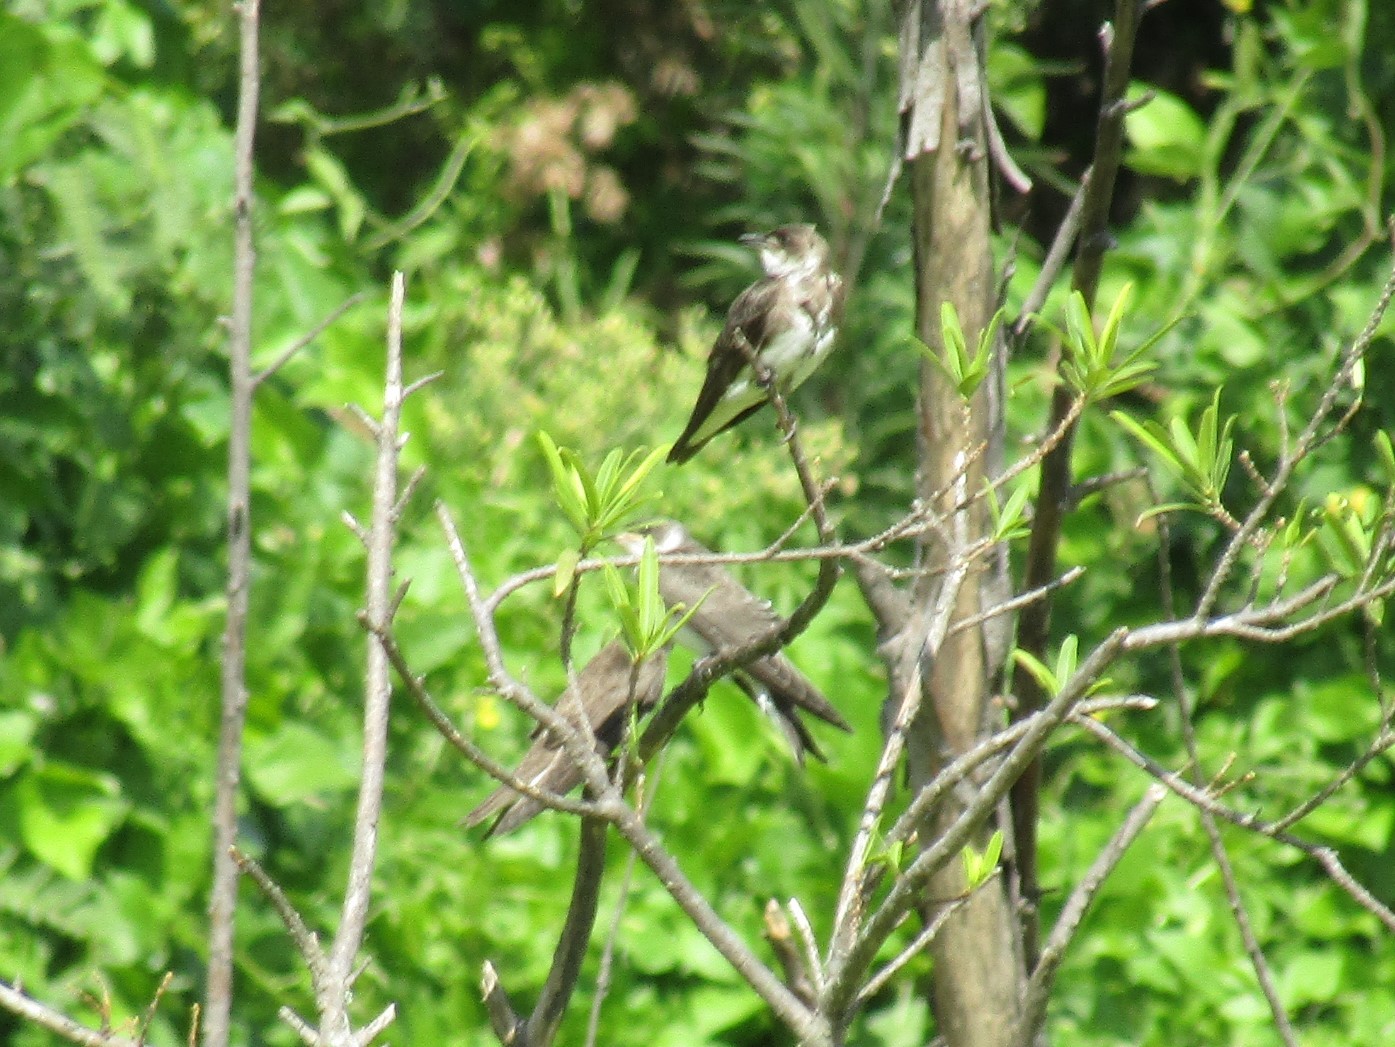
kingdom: Animalia
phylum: Chordata
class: Aves
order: Passeriformes
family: Hirundinidae
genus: Progne
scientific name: Progne tapera
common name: Brown-chested martin
